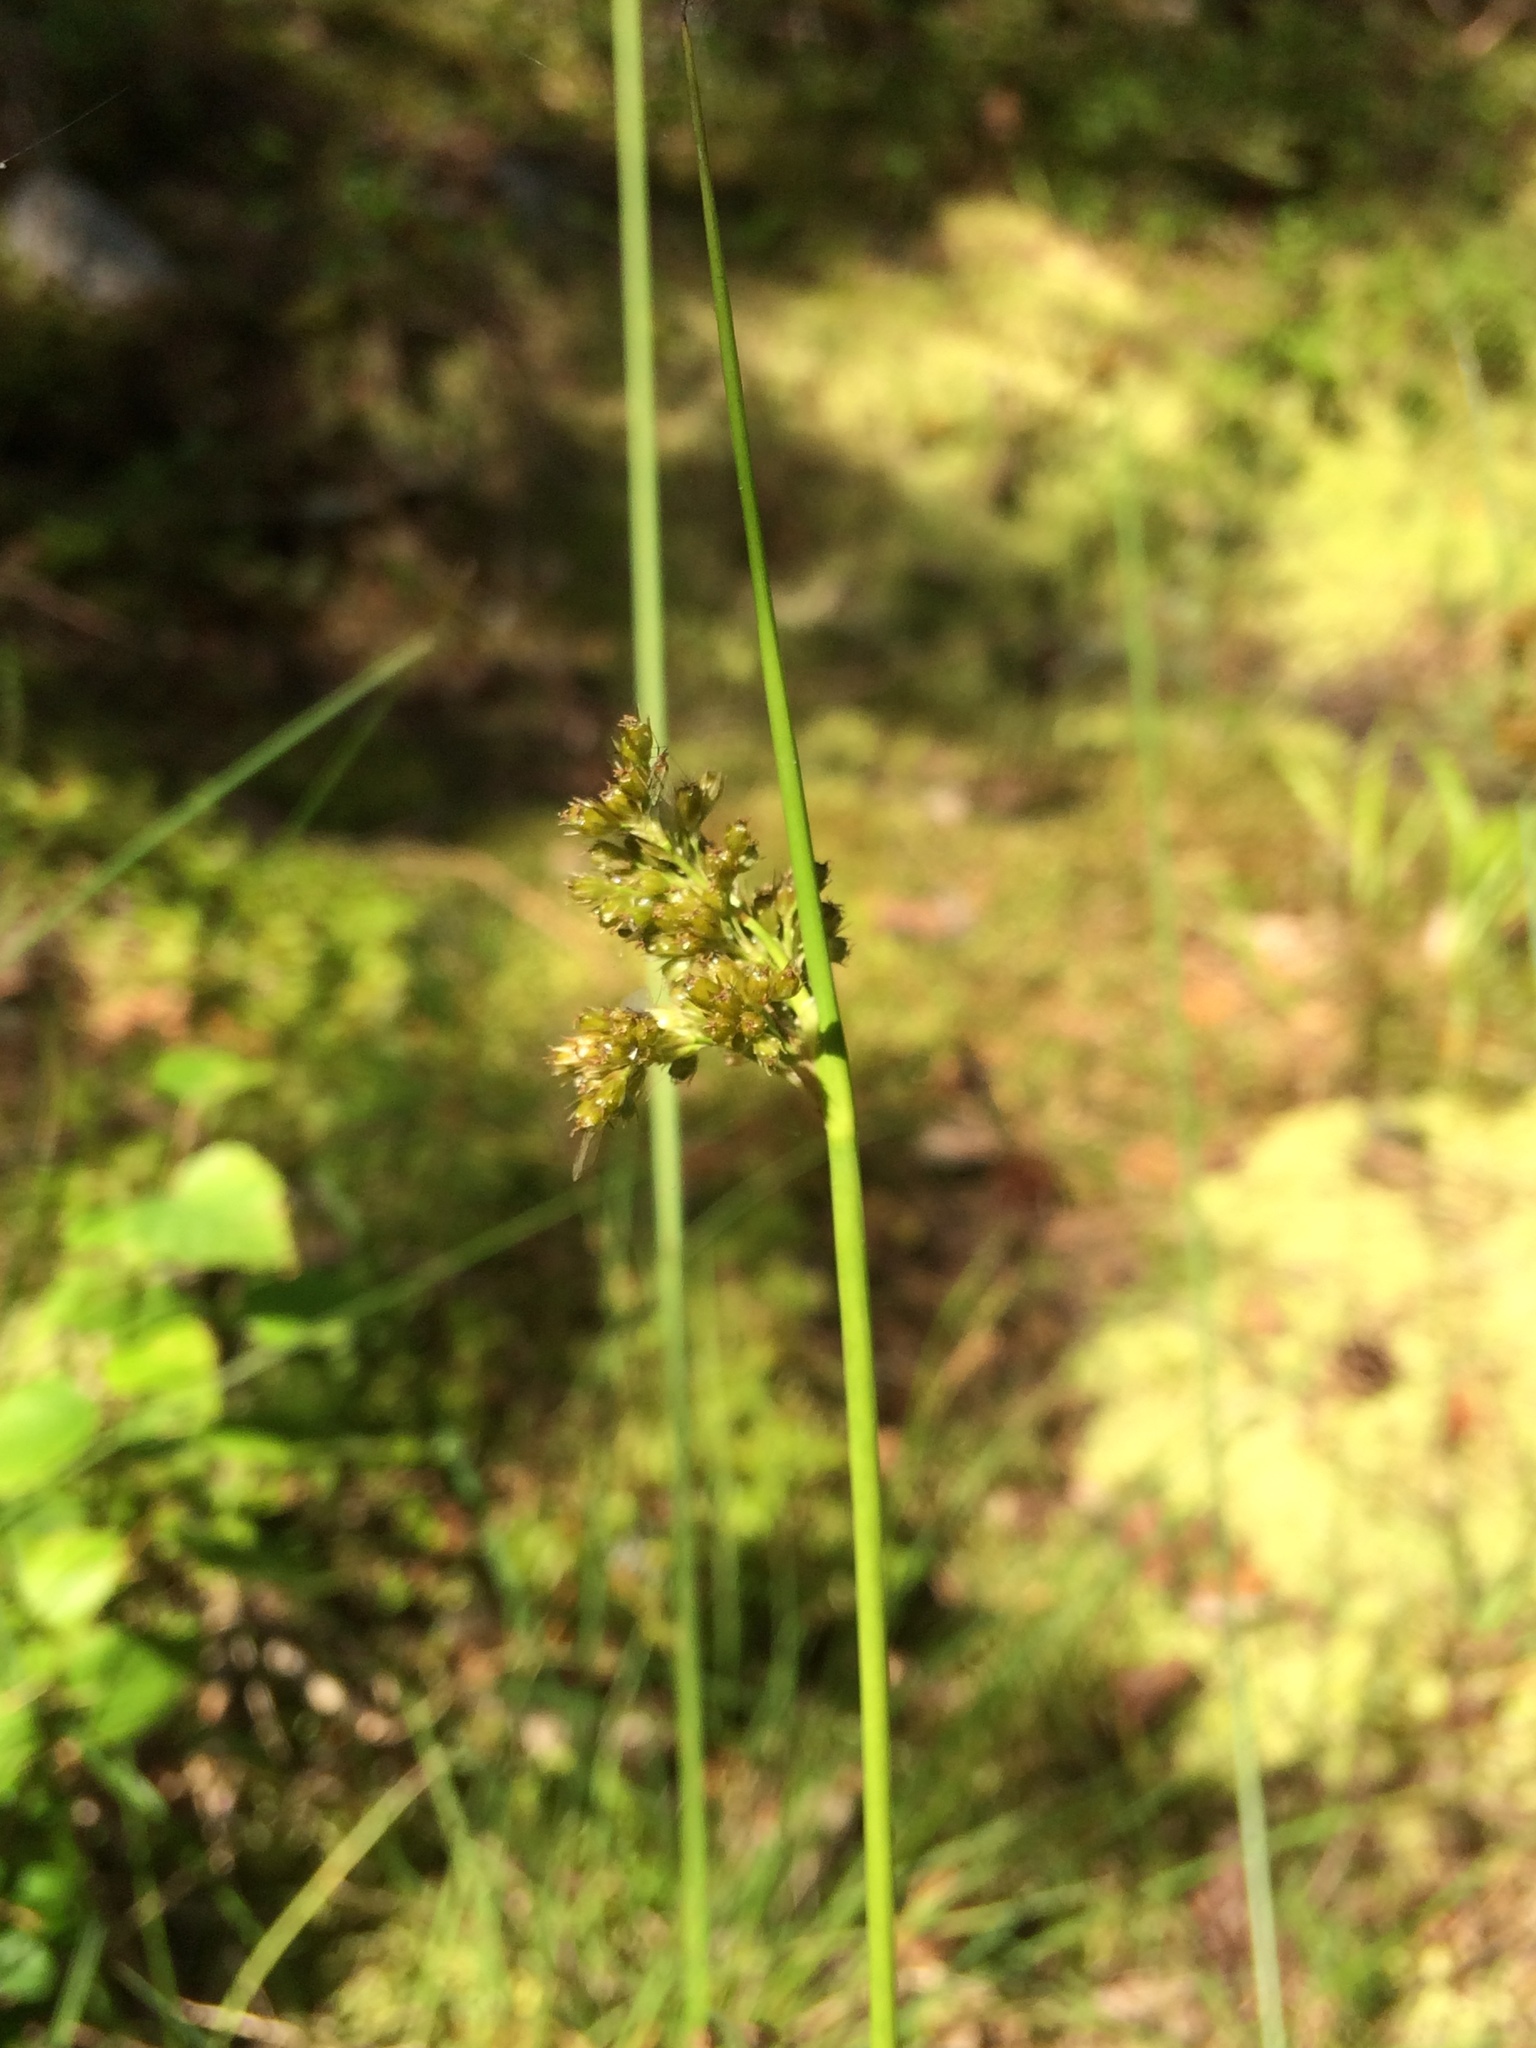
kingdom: Plantae
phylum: Tracheophyta
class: Liliopsida
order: Poales
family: Juncaceae
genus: Juncus
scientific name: Juncus effusus
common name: Soft rush
